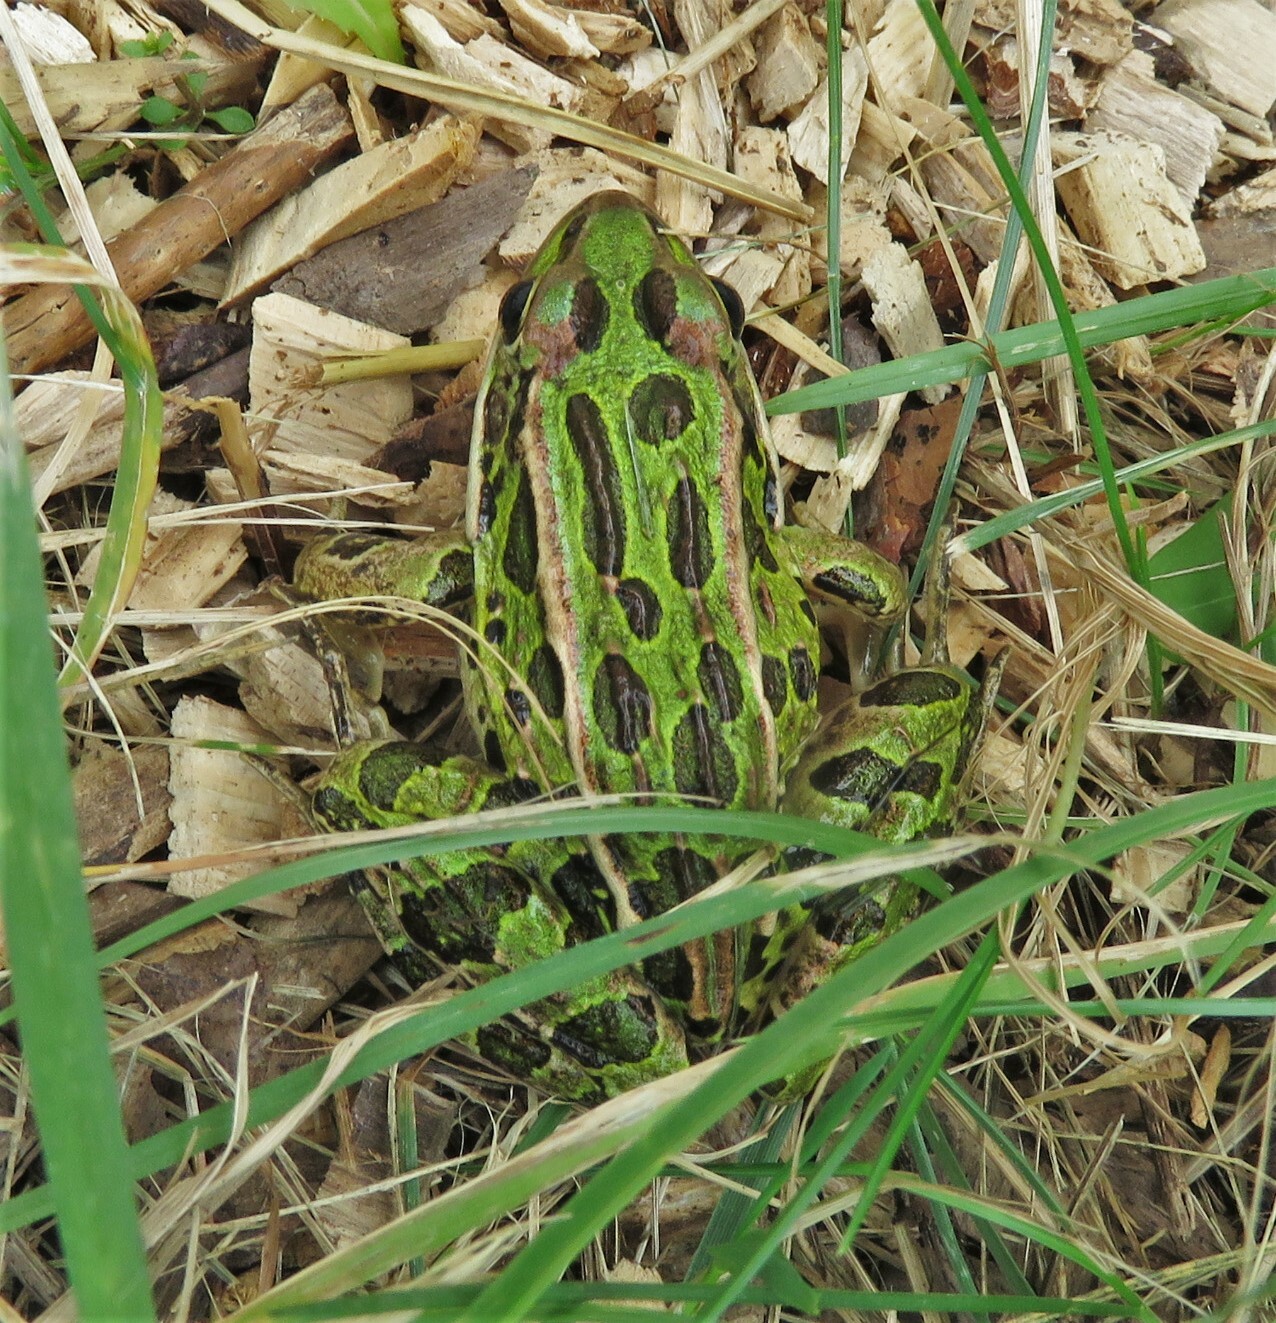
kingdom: Animalia
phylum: Chordata
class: Amphibia
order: Anura
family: Ranidae
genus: Lithobates
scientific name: Lithobates pipiens
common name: Northern leopard frog
